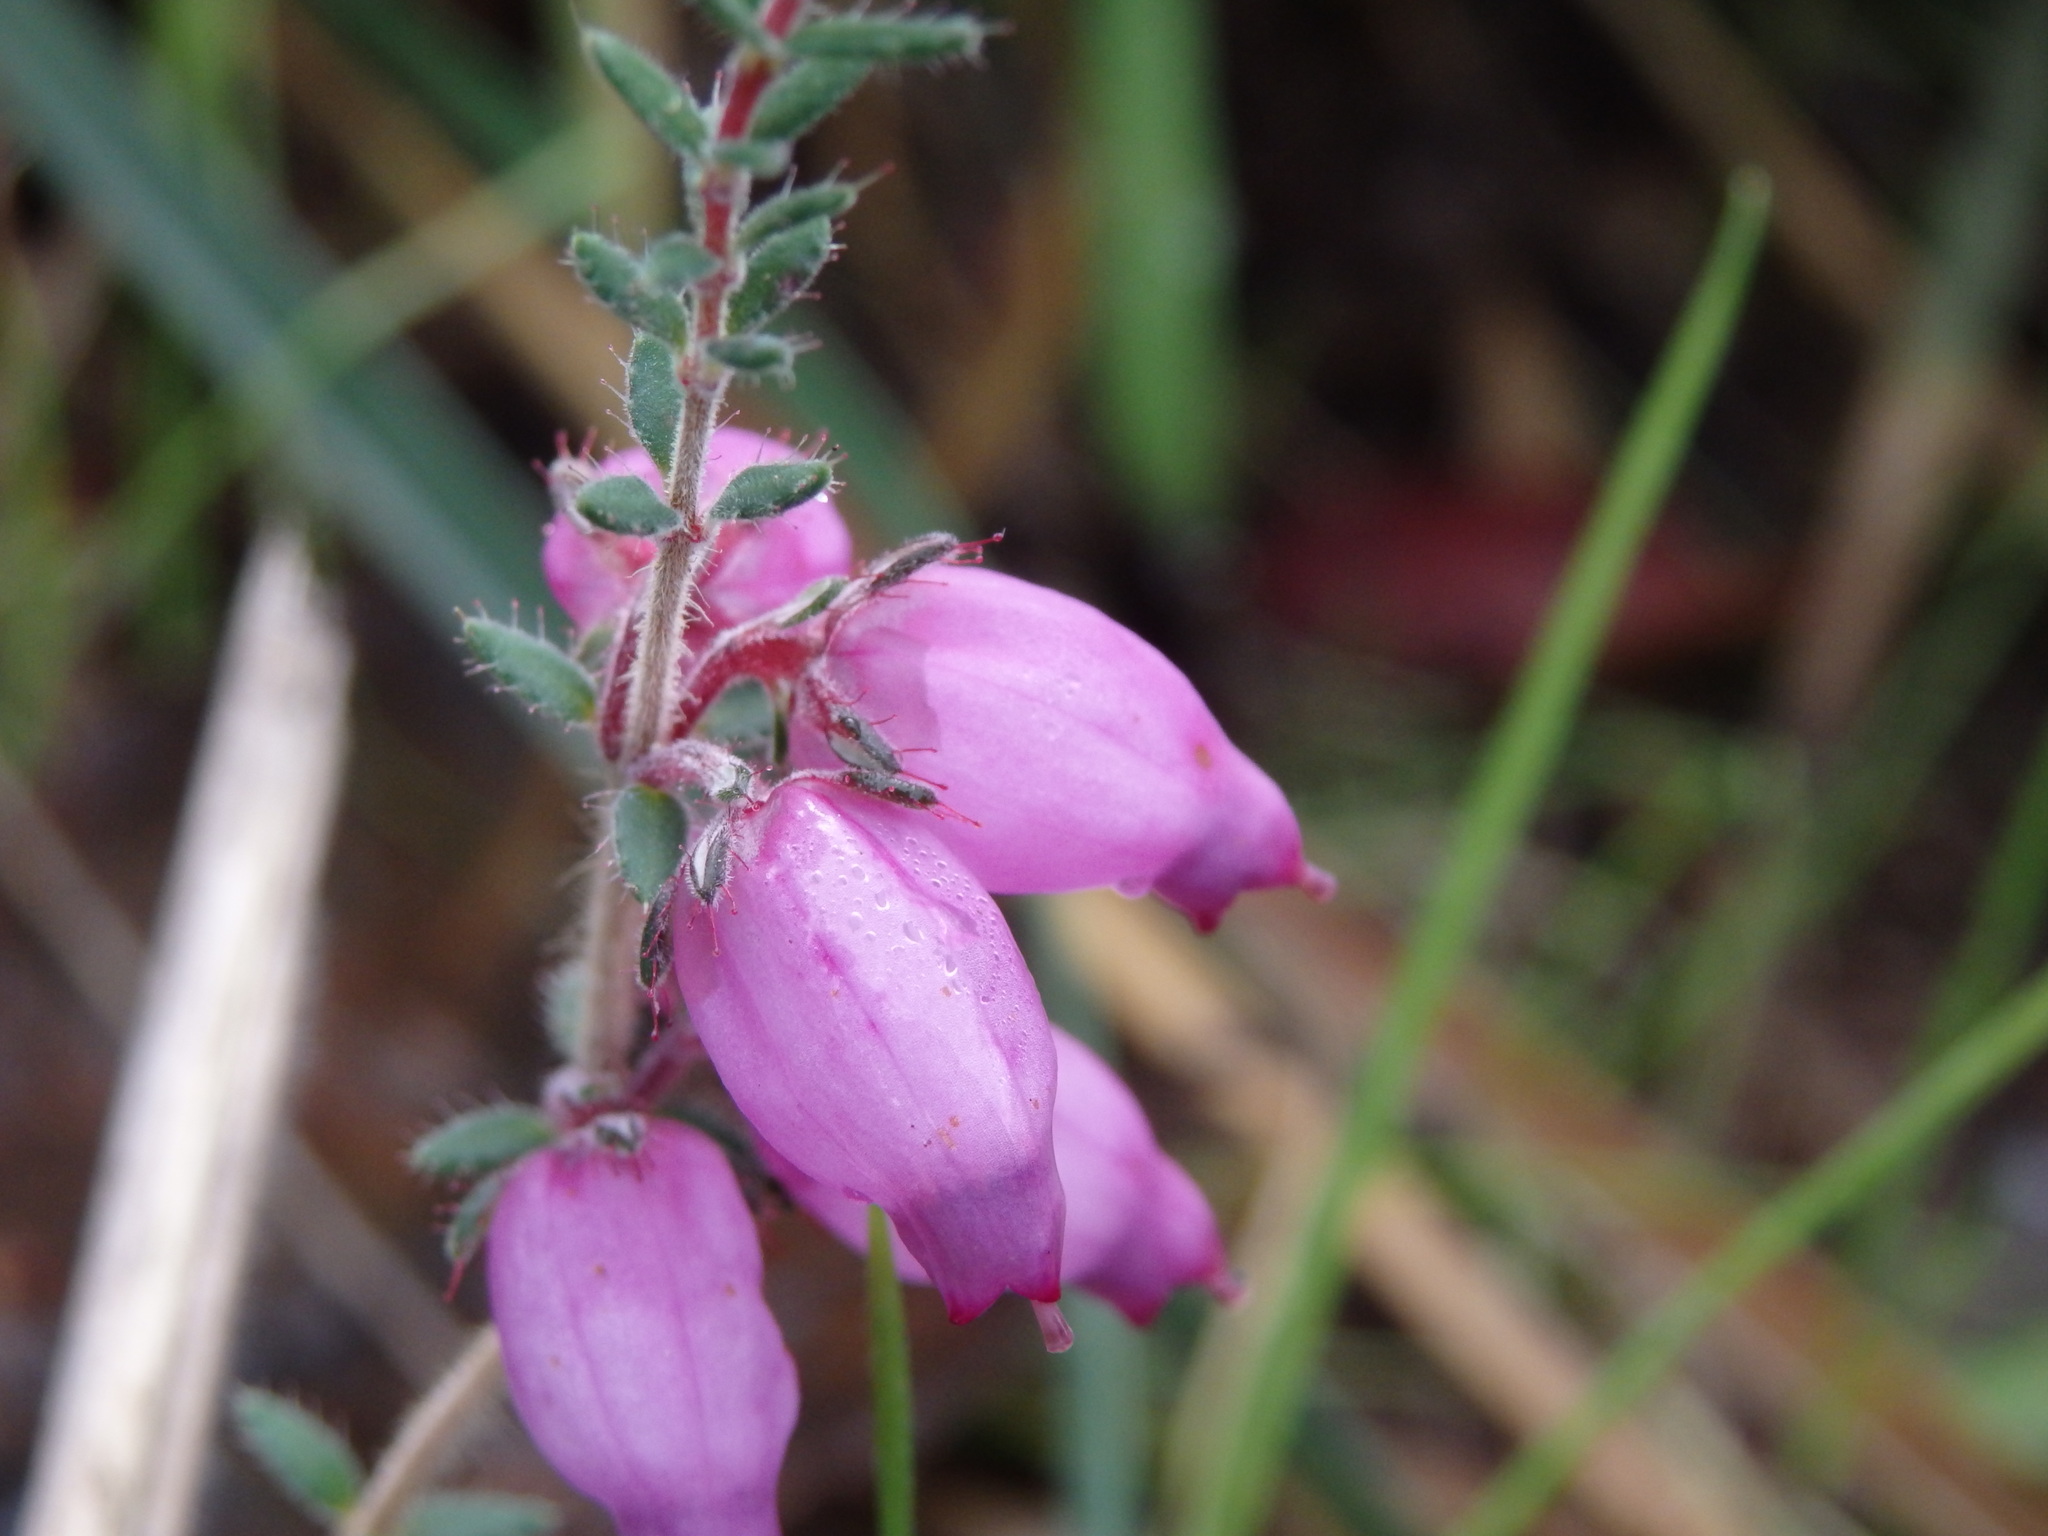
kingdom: Plantae
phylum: Tracheophyta
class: Magnoliopsida
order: Ericales
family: Ericaceae
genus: Erica
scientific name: Erica ciliaris
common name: Dorset heath
